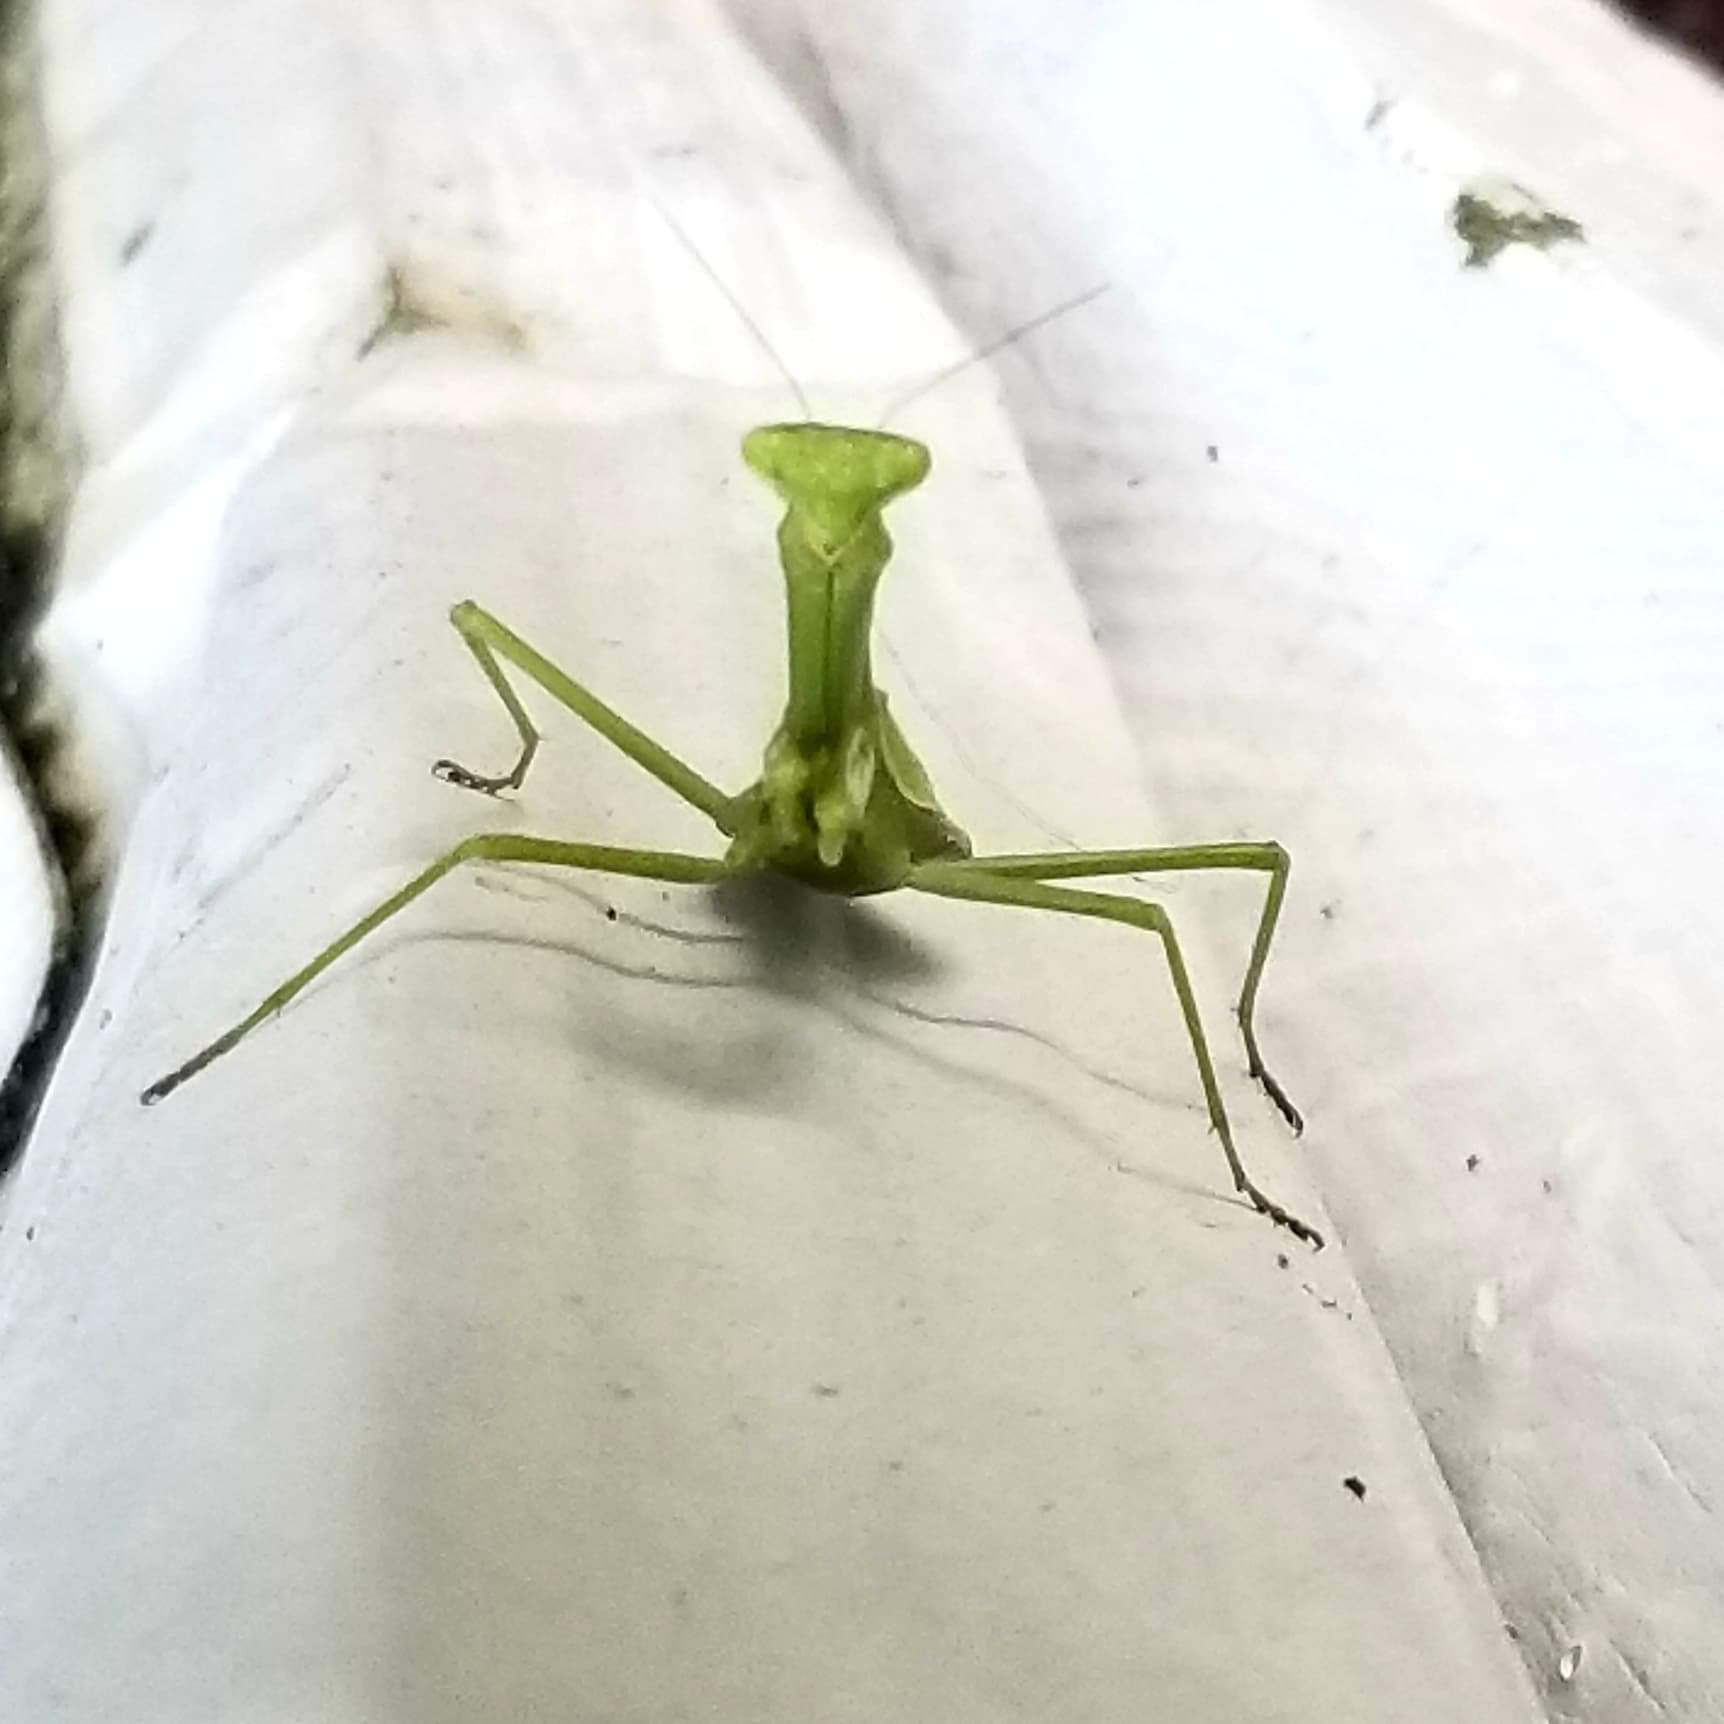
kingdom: Animalia
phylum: Arthropoda
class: Insecta
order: Mantodea
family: Mantidae
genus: Stagmomantis
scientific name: Stagmomantis carolina
